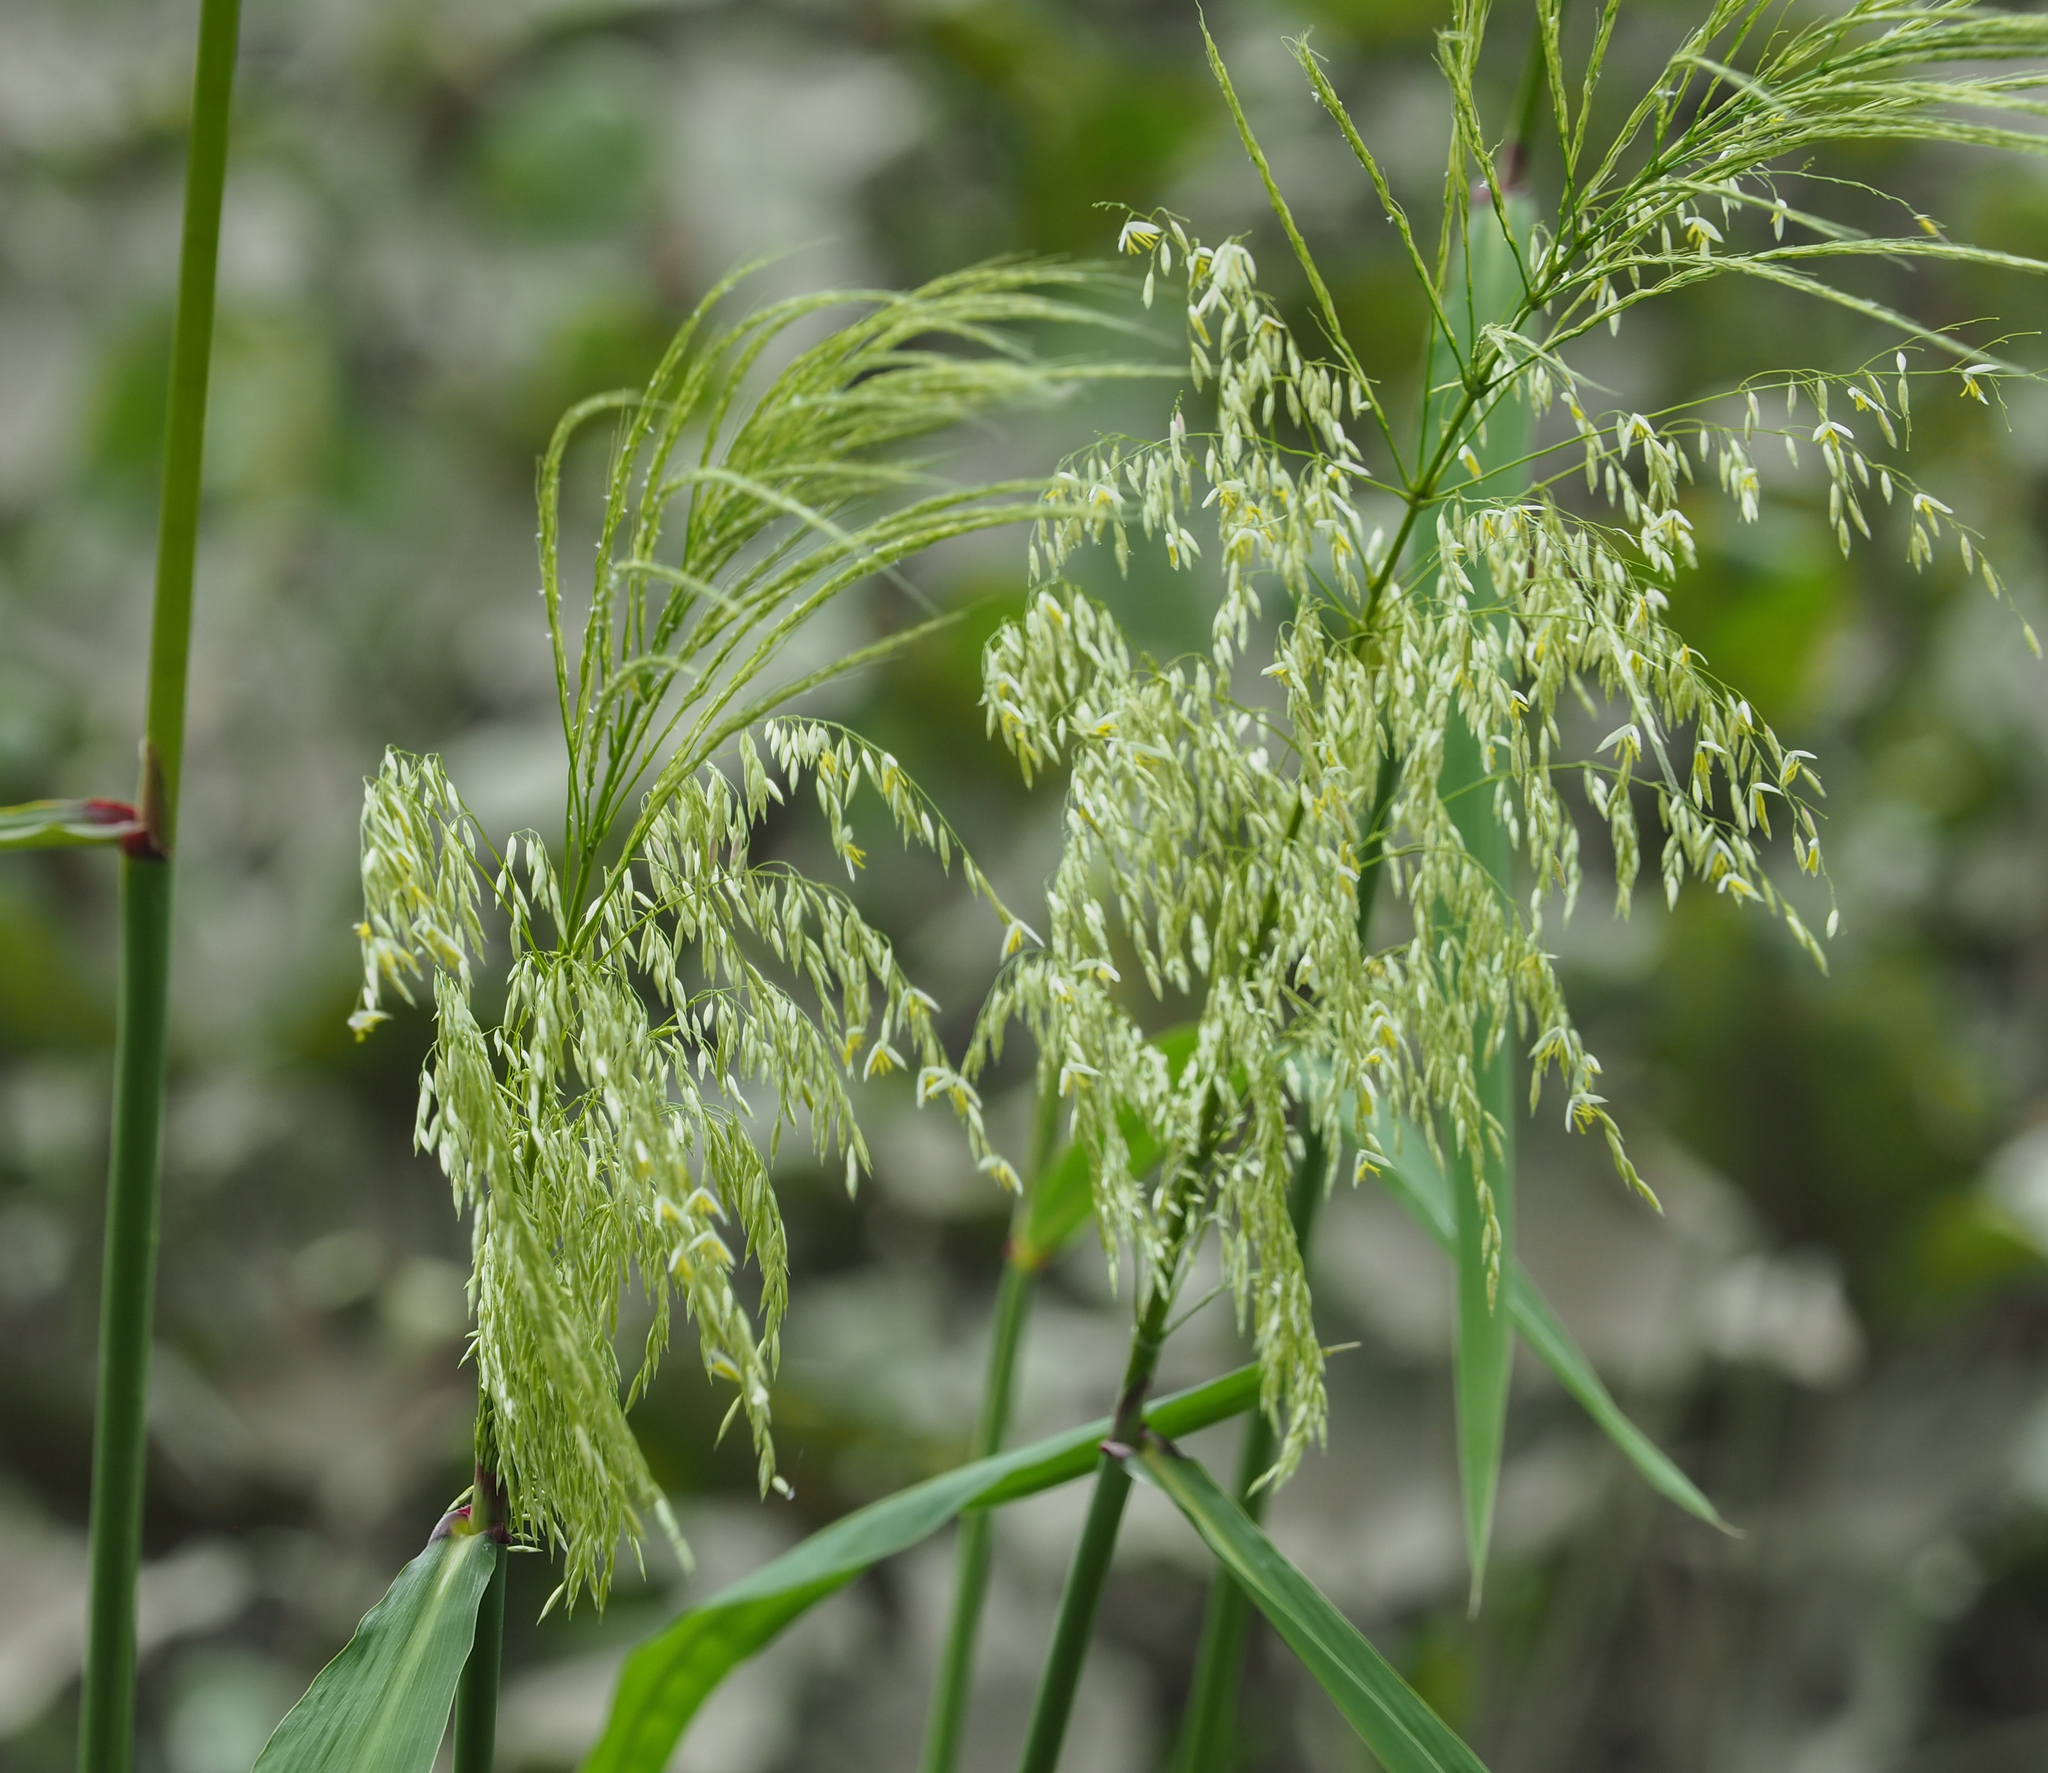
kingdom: Plantae
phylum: Tracheophyta
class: Liliopsida
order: Poales
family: Poaceae
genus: Zizania
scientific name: Zizania aquatica
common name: Annual wildrice
